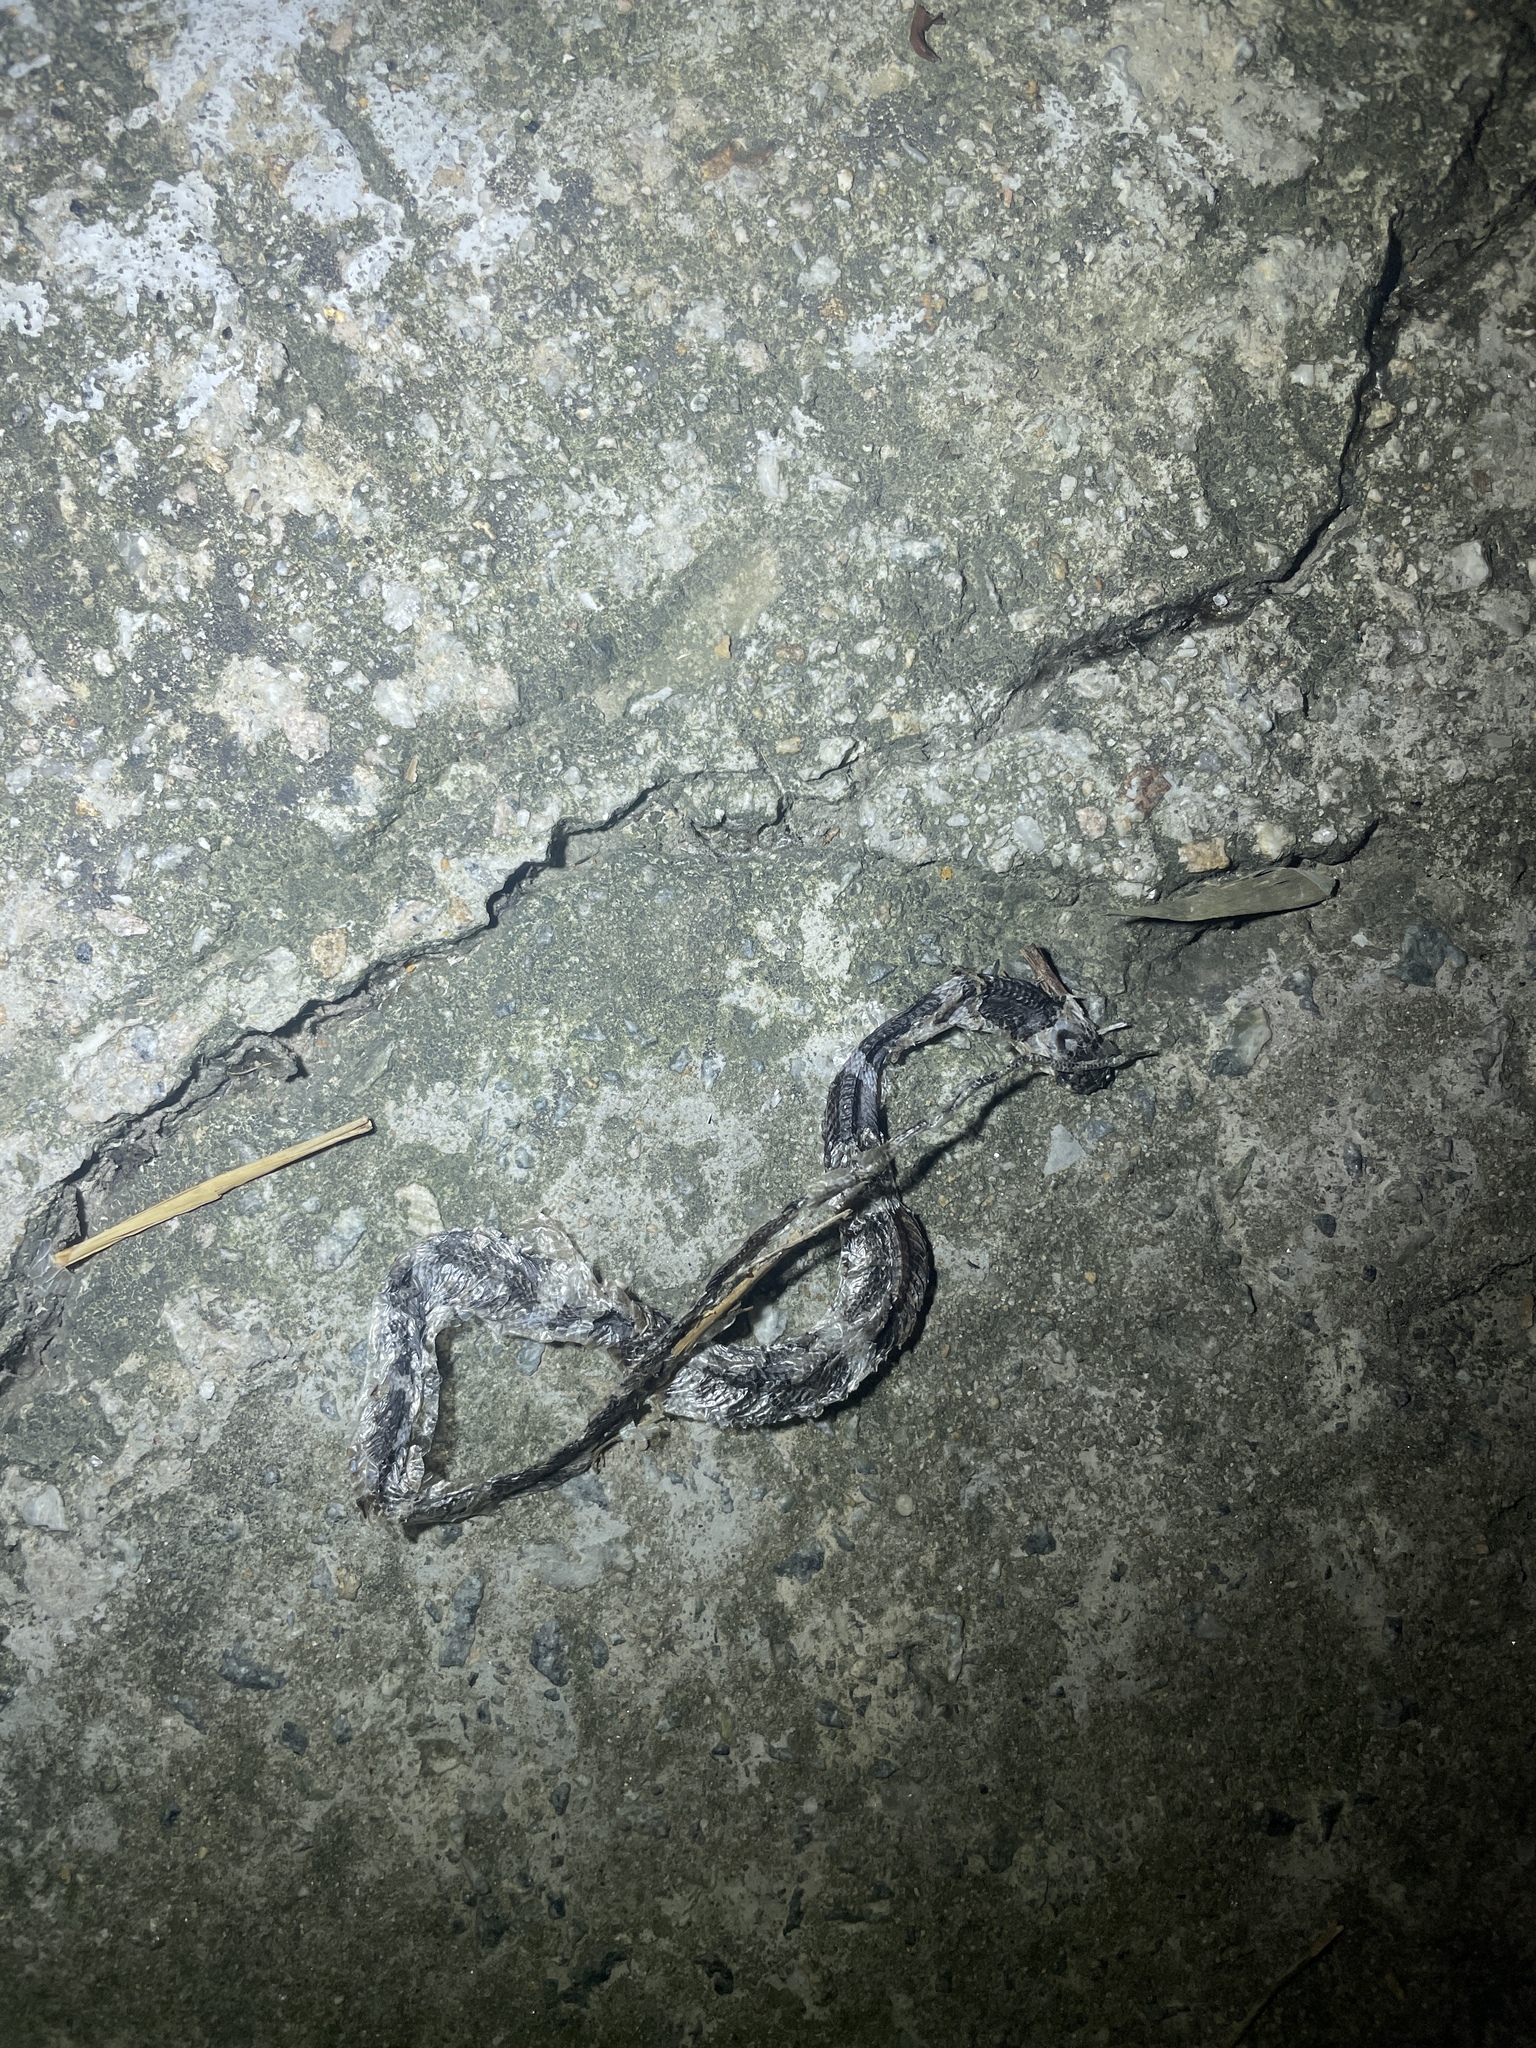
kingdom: Animalia
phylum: Chordata
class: Squamata
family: Colubridae
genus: Lycodon
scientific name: Lycodon subcinctus
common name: Malayan banded wolf snake
